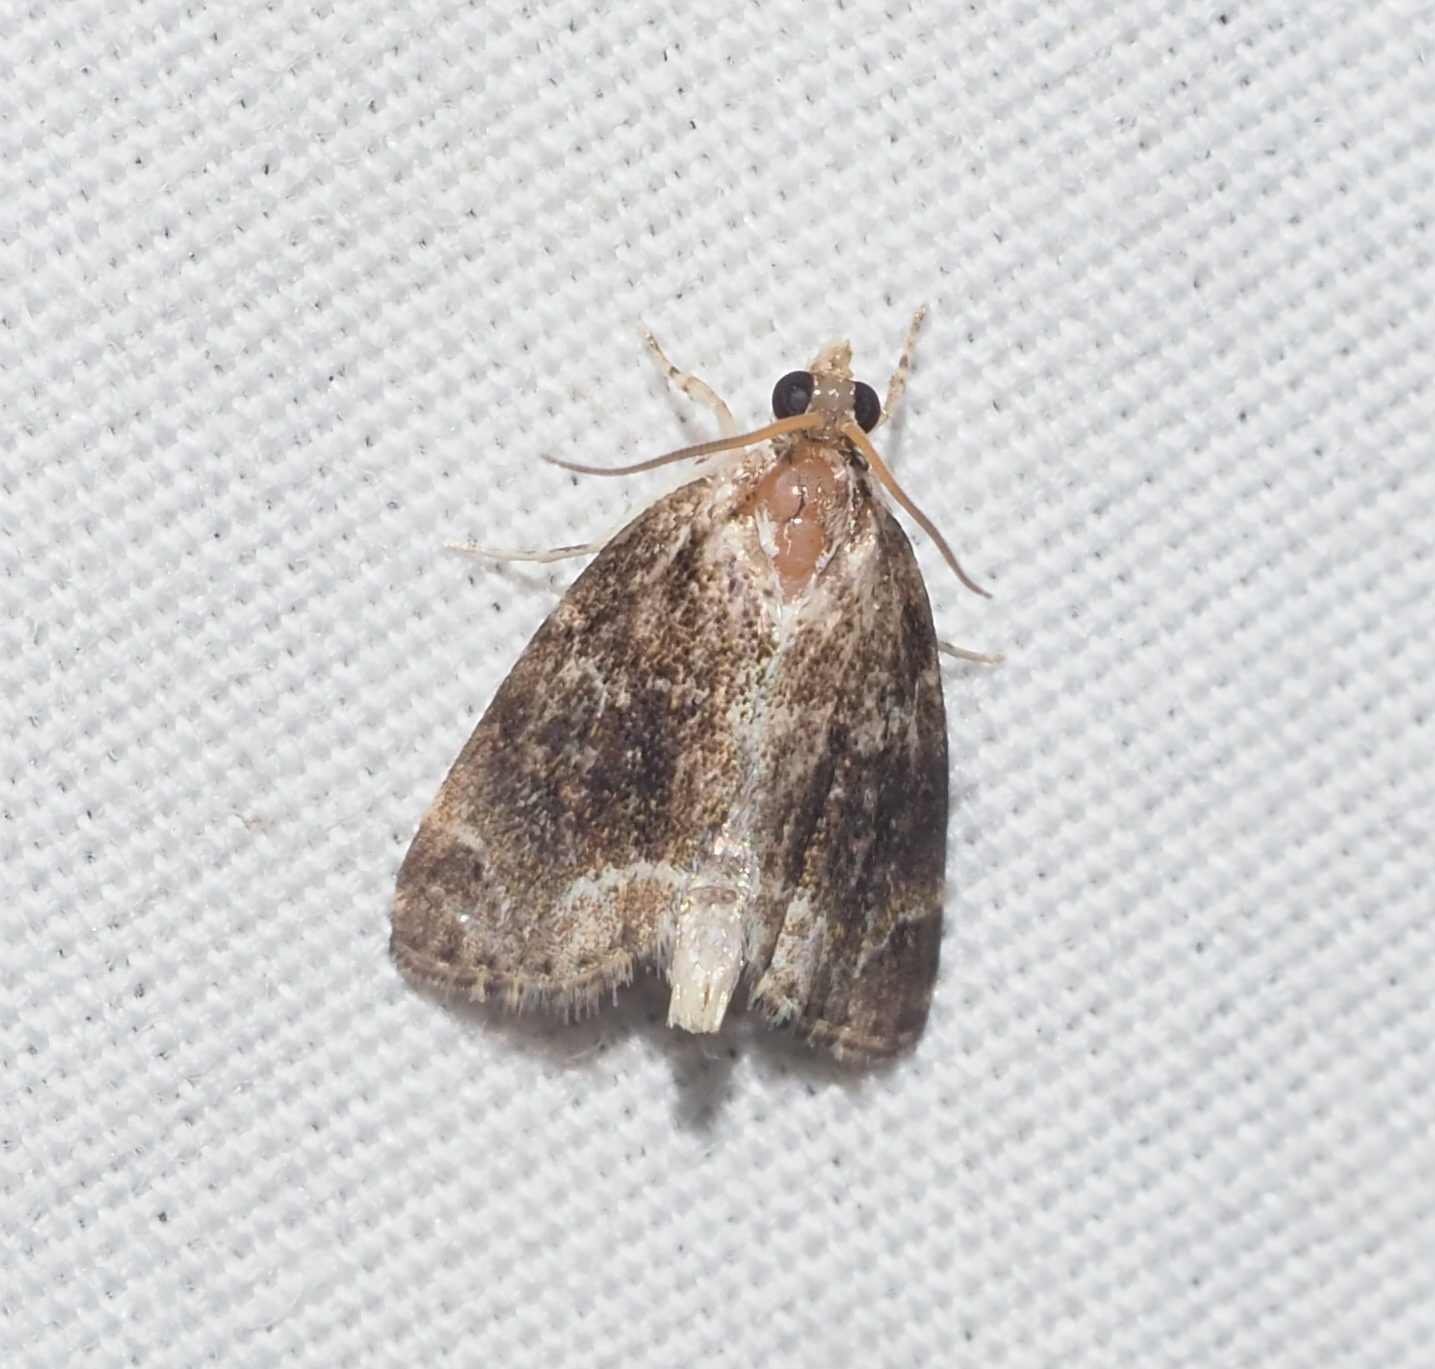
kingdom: Animalia
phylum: Arthropoda
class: Insecta
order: Lepidoptera
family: Crambidae
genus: Mestolobes
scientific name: Mestolobes abnormis
